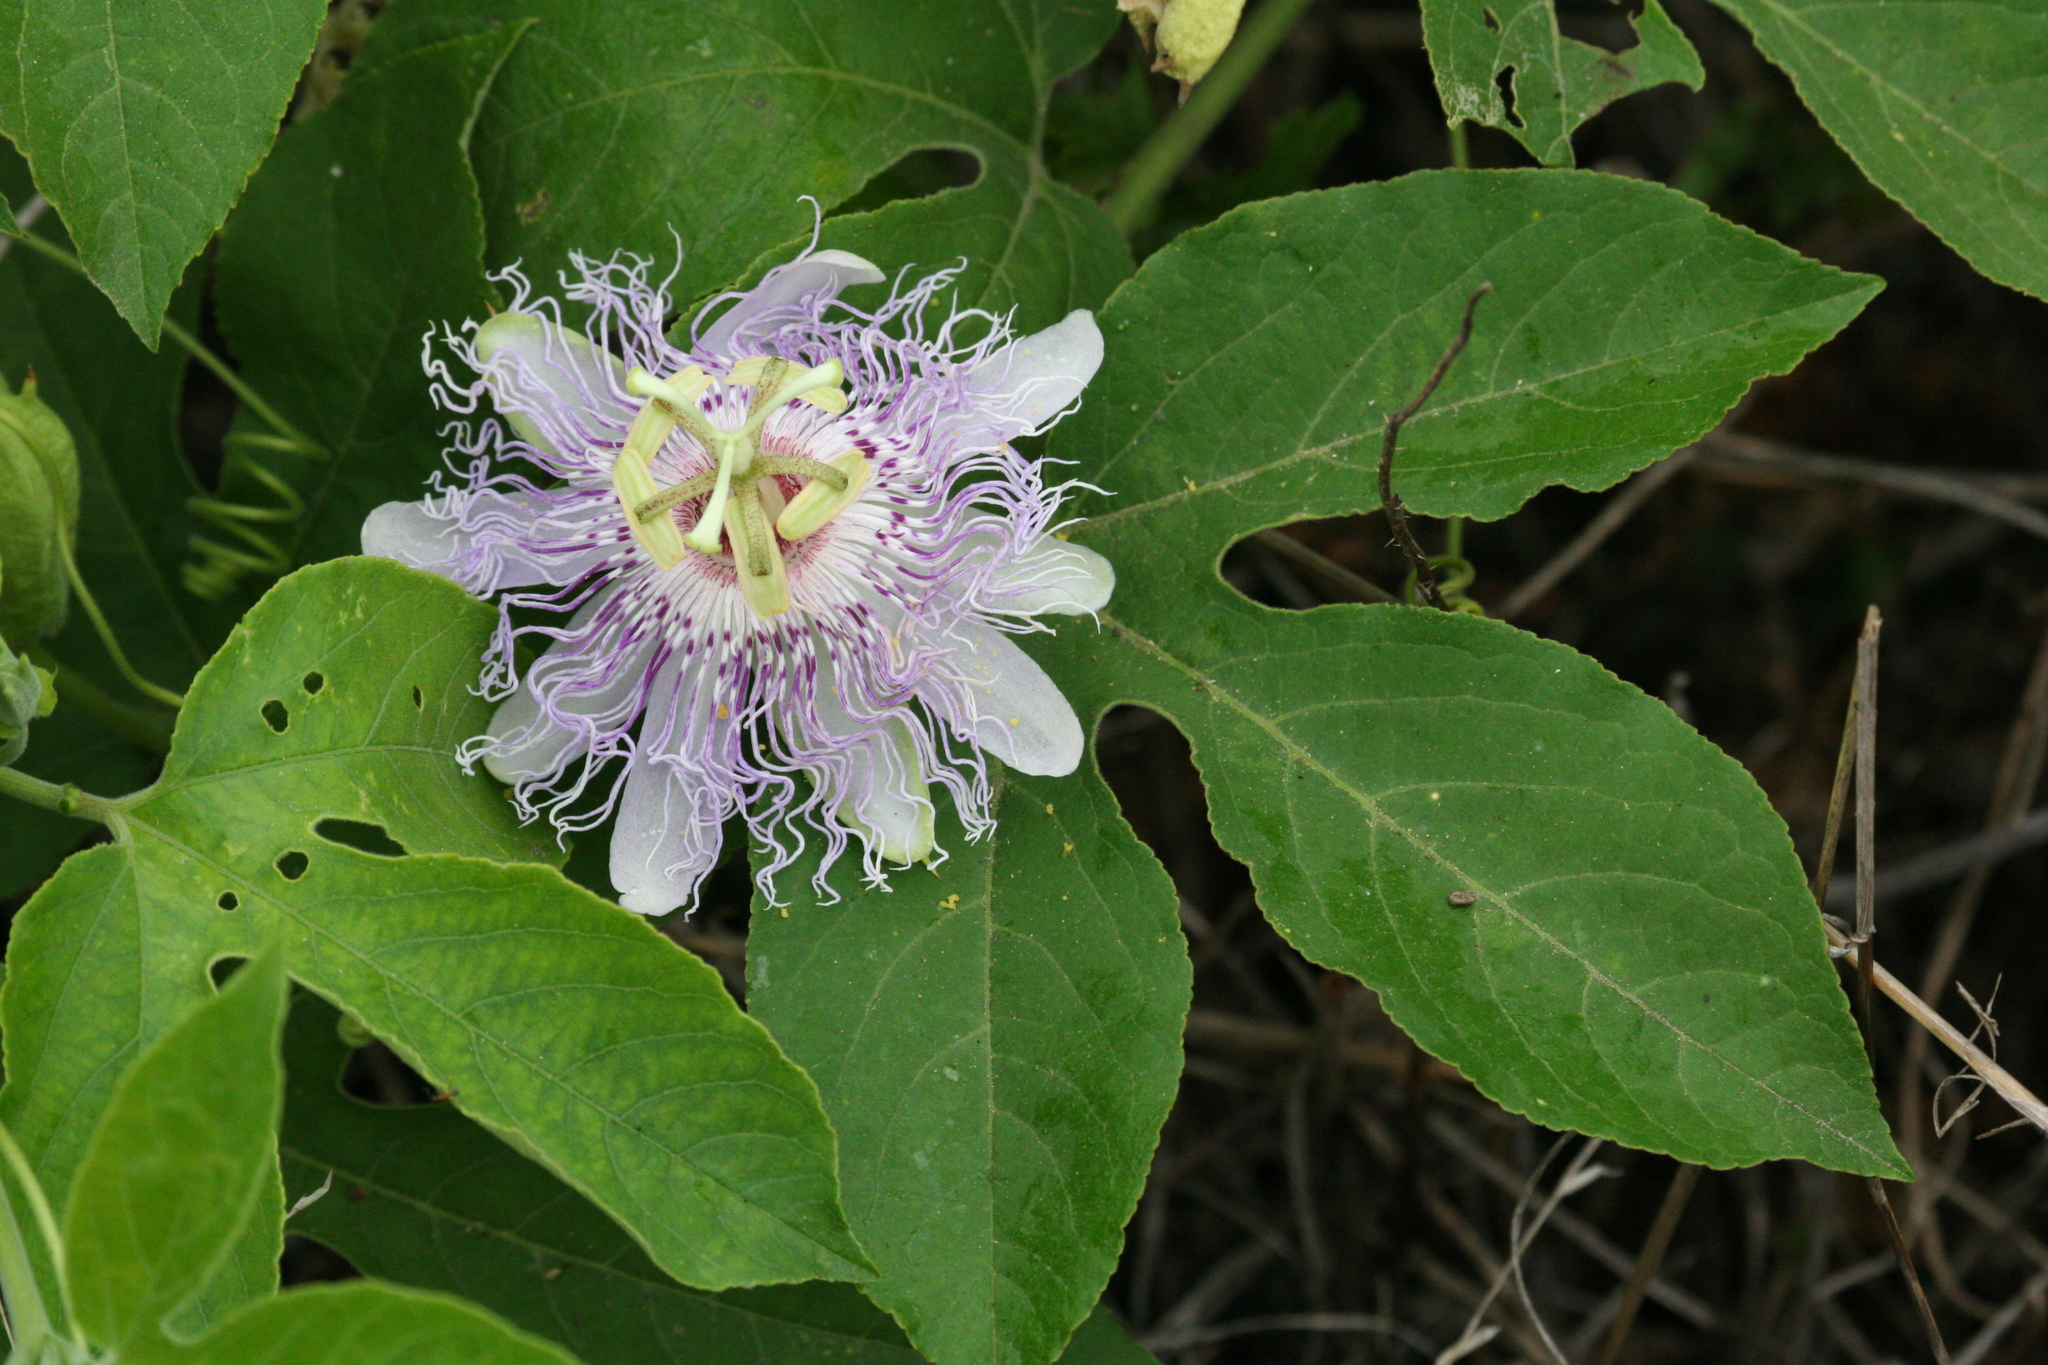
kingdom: Plantae
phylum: Tracheophyta
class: Magnoliopsida
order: Malpighiales
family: Passifloraceae
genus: Passiflora
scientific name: Passiflora incarnata
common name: Apricot-vine
